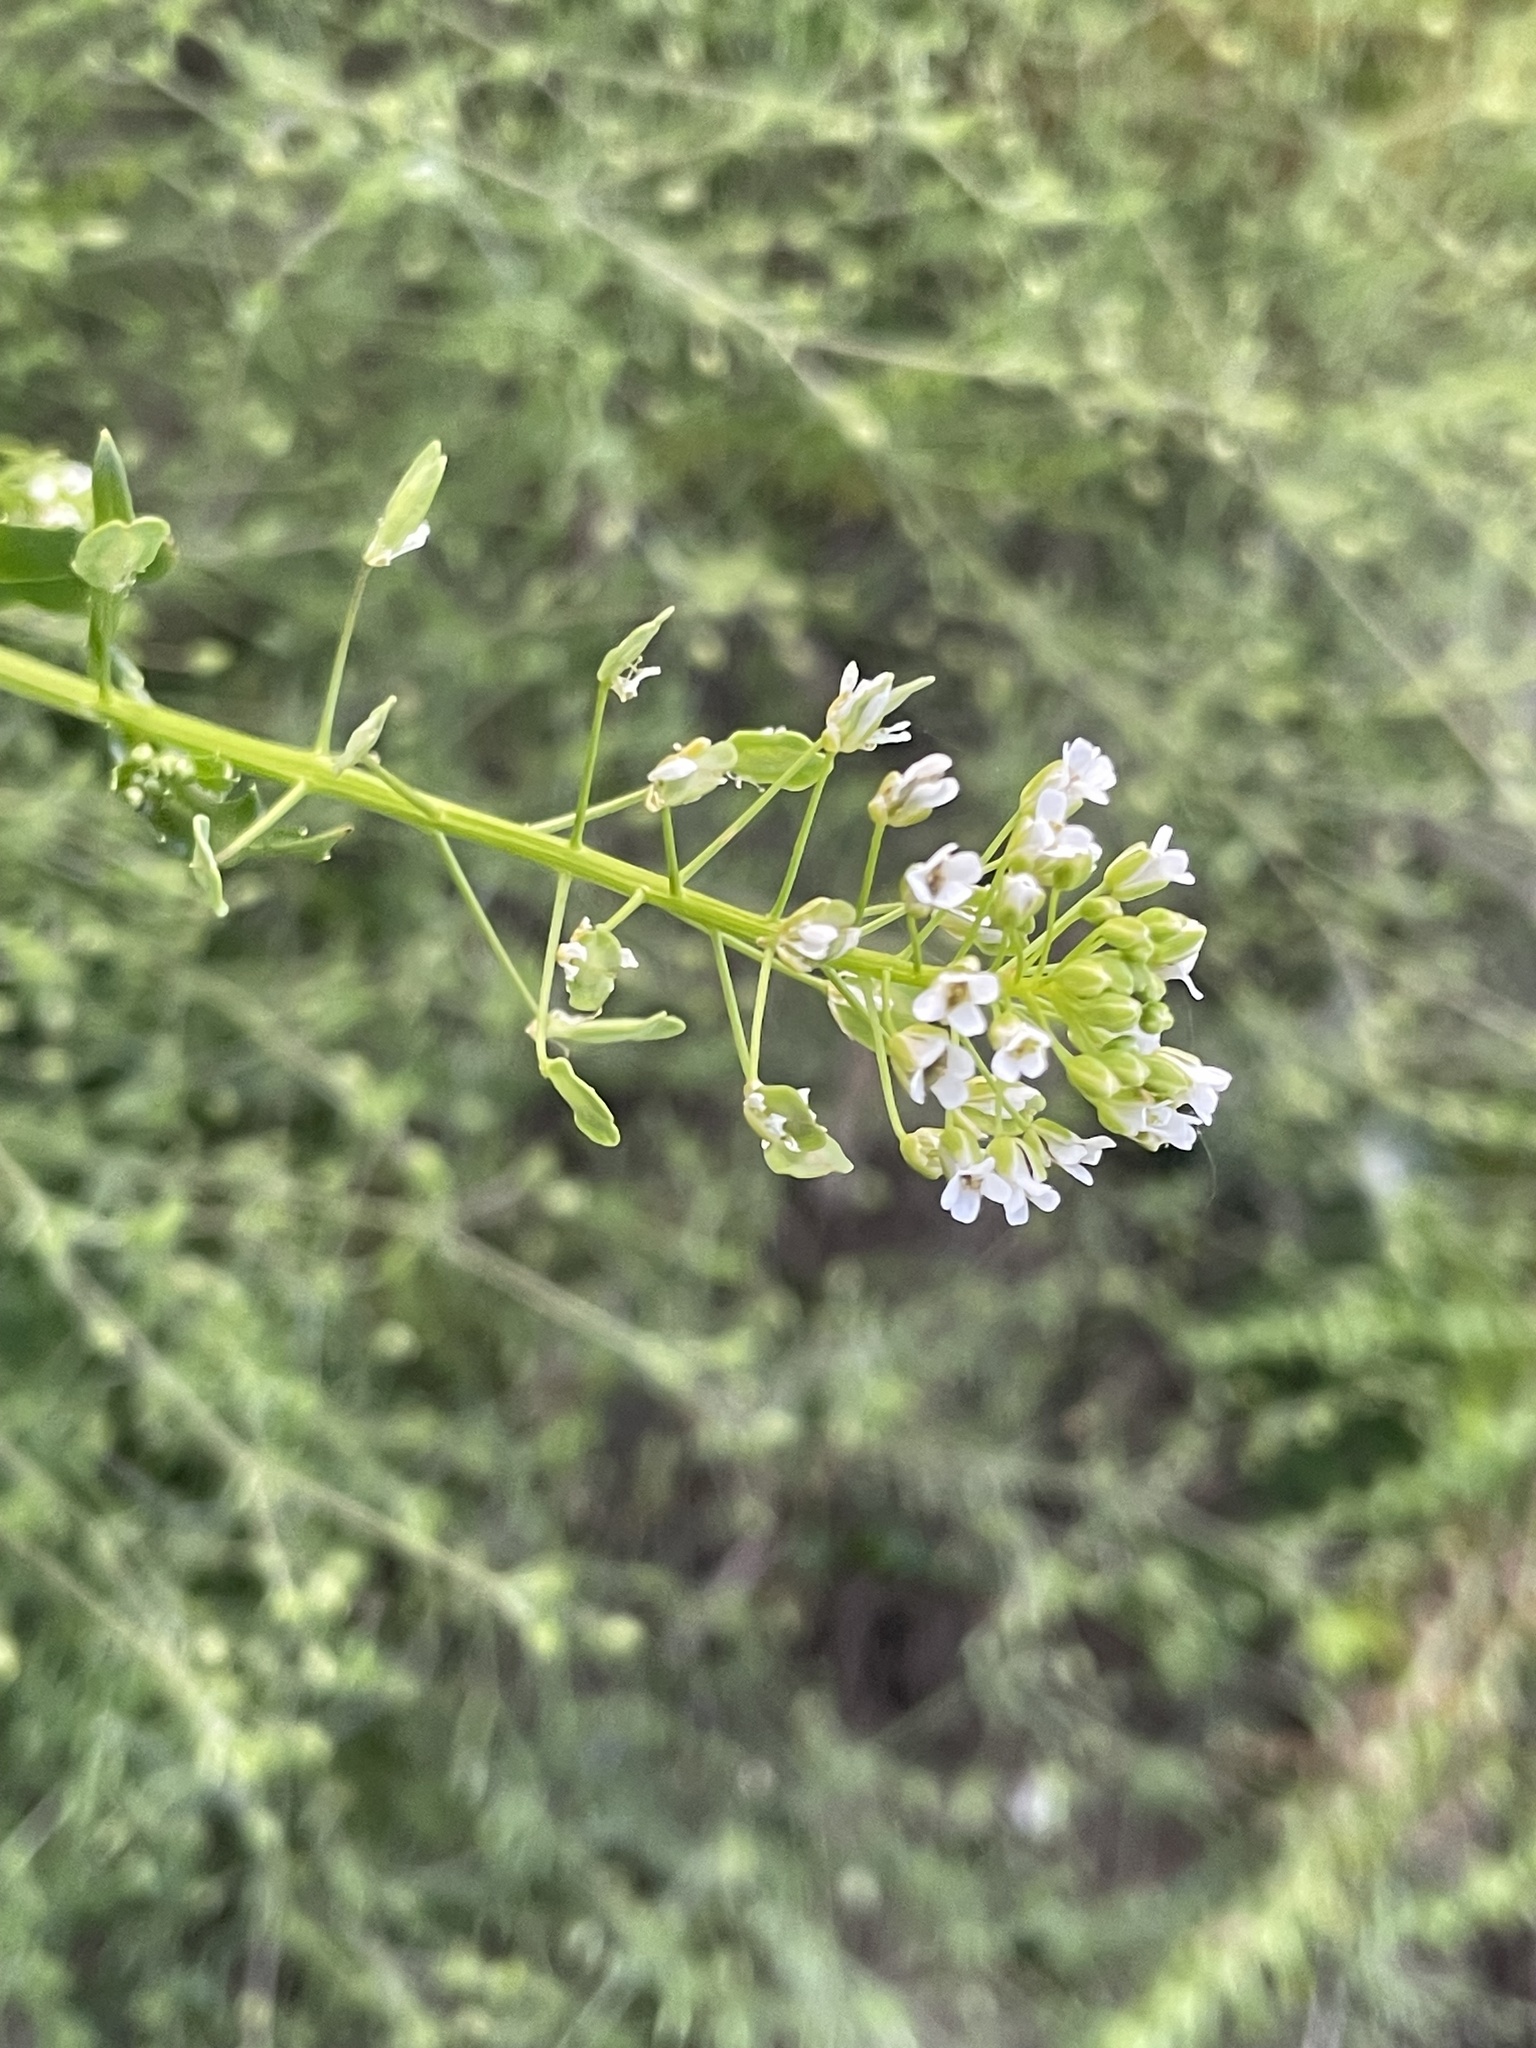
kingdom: Plantae
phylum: Tracheophyta
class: Magnoliopsida
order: Brassicales
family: Brassicaceae
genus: Thlaspi
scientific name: Thlaspi arvense
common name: Field pennycress
